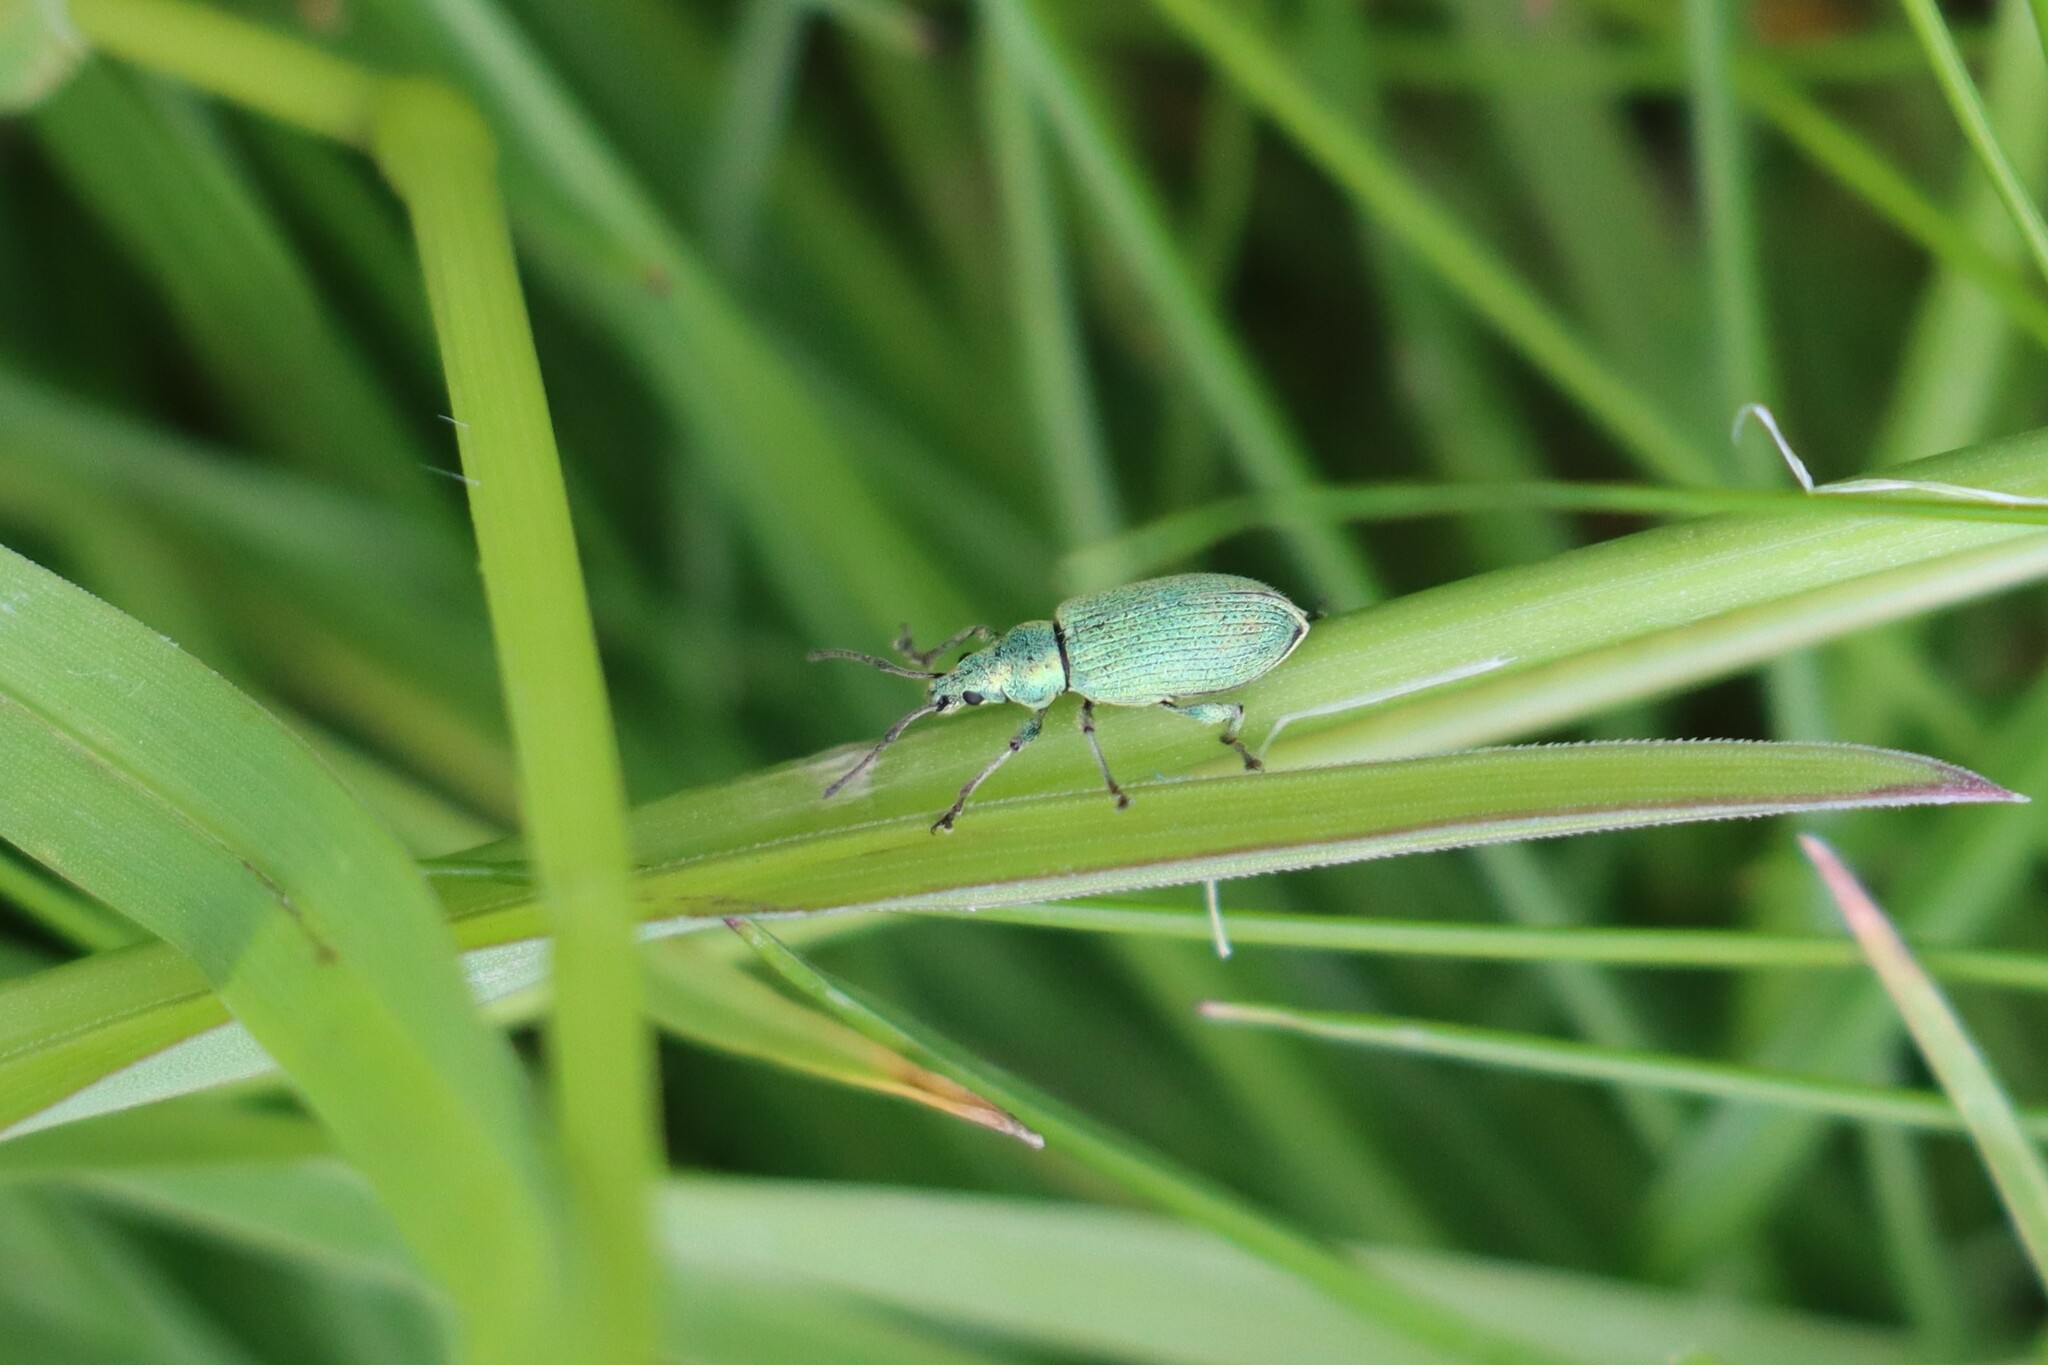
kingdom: Animalia
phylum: Arthropoda
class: Insecta
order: Coleoptera
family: Curculionidae
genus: Phyllobius
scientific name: Phyllobius maculicornis
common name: Green leaf weevil
